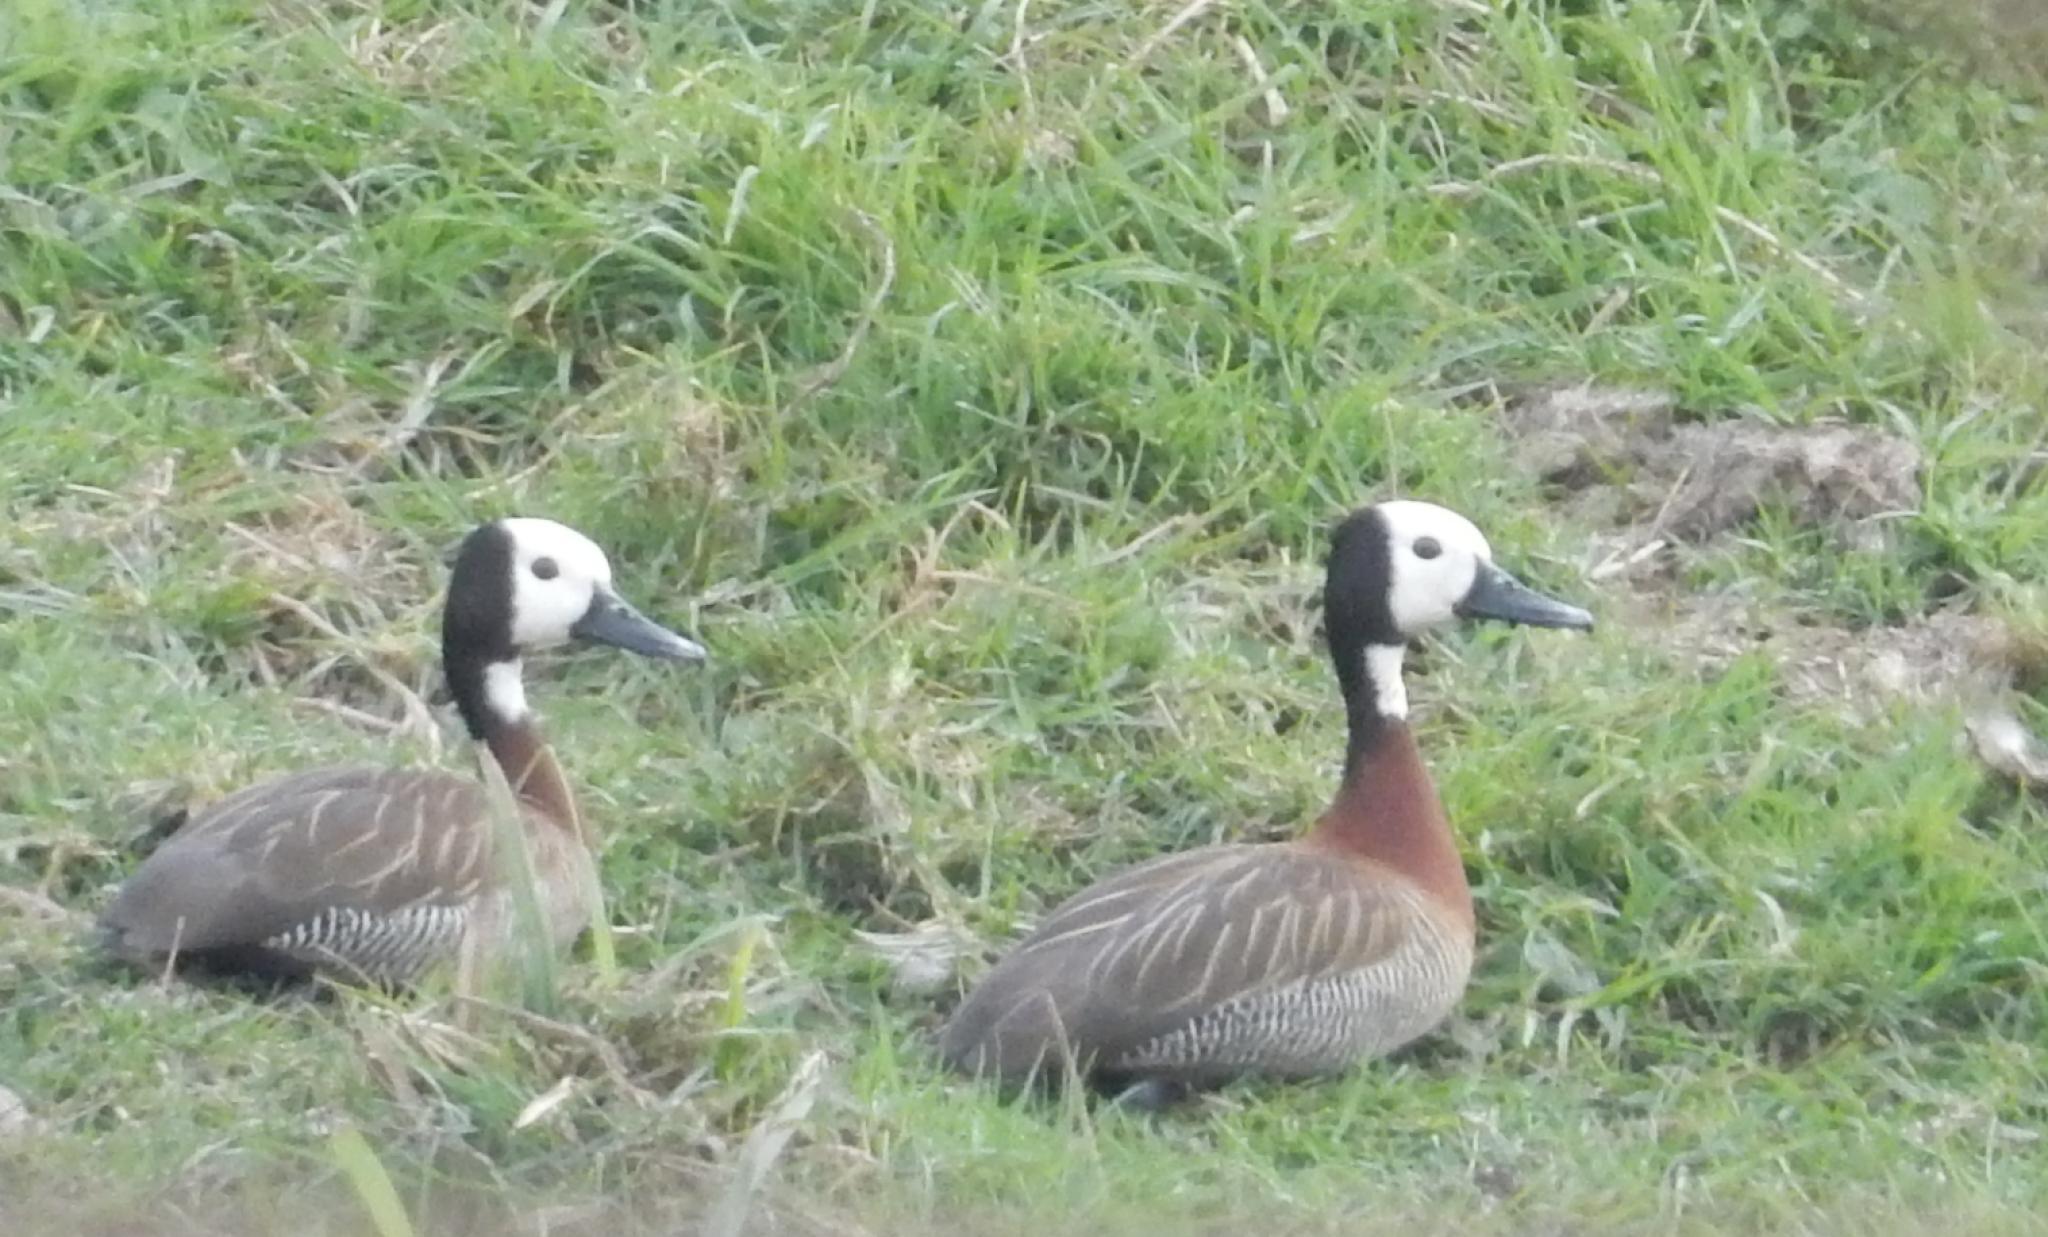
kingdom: Animalia
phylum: Chordata
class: Aves
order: Anseriformes
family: Anatidae
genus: Dendrocygna
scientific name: Dendrocygna viduata
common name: White-faced whistling duck
